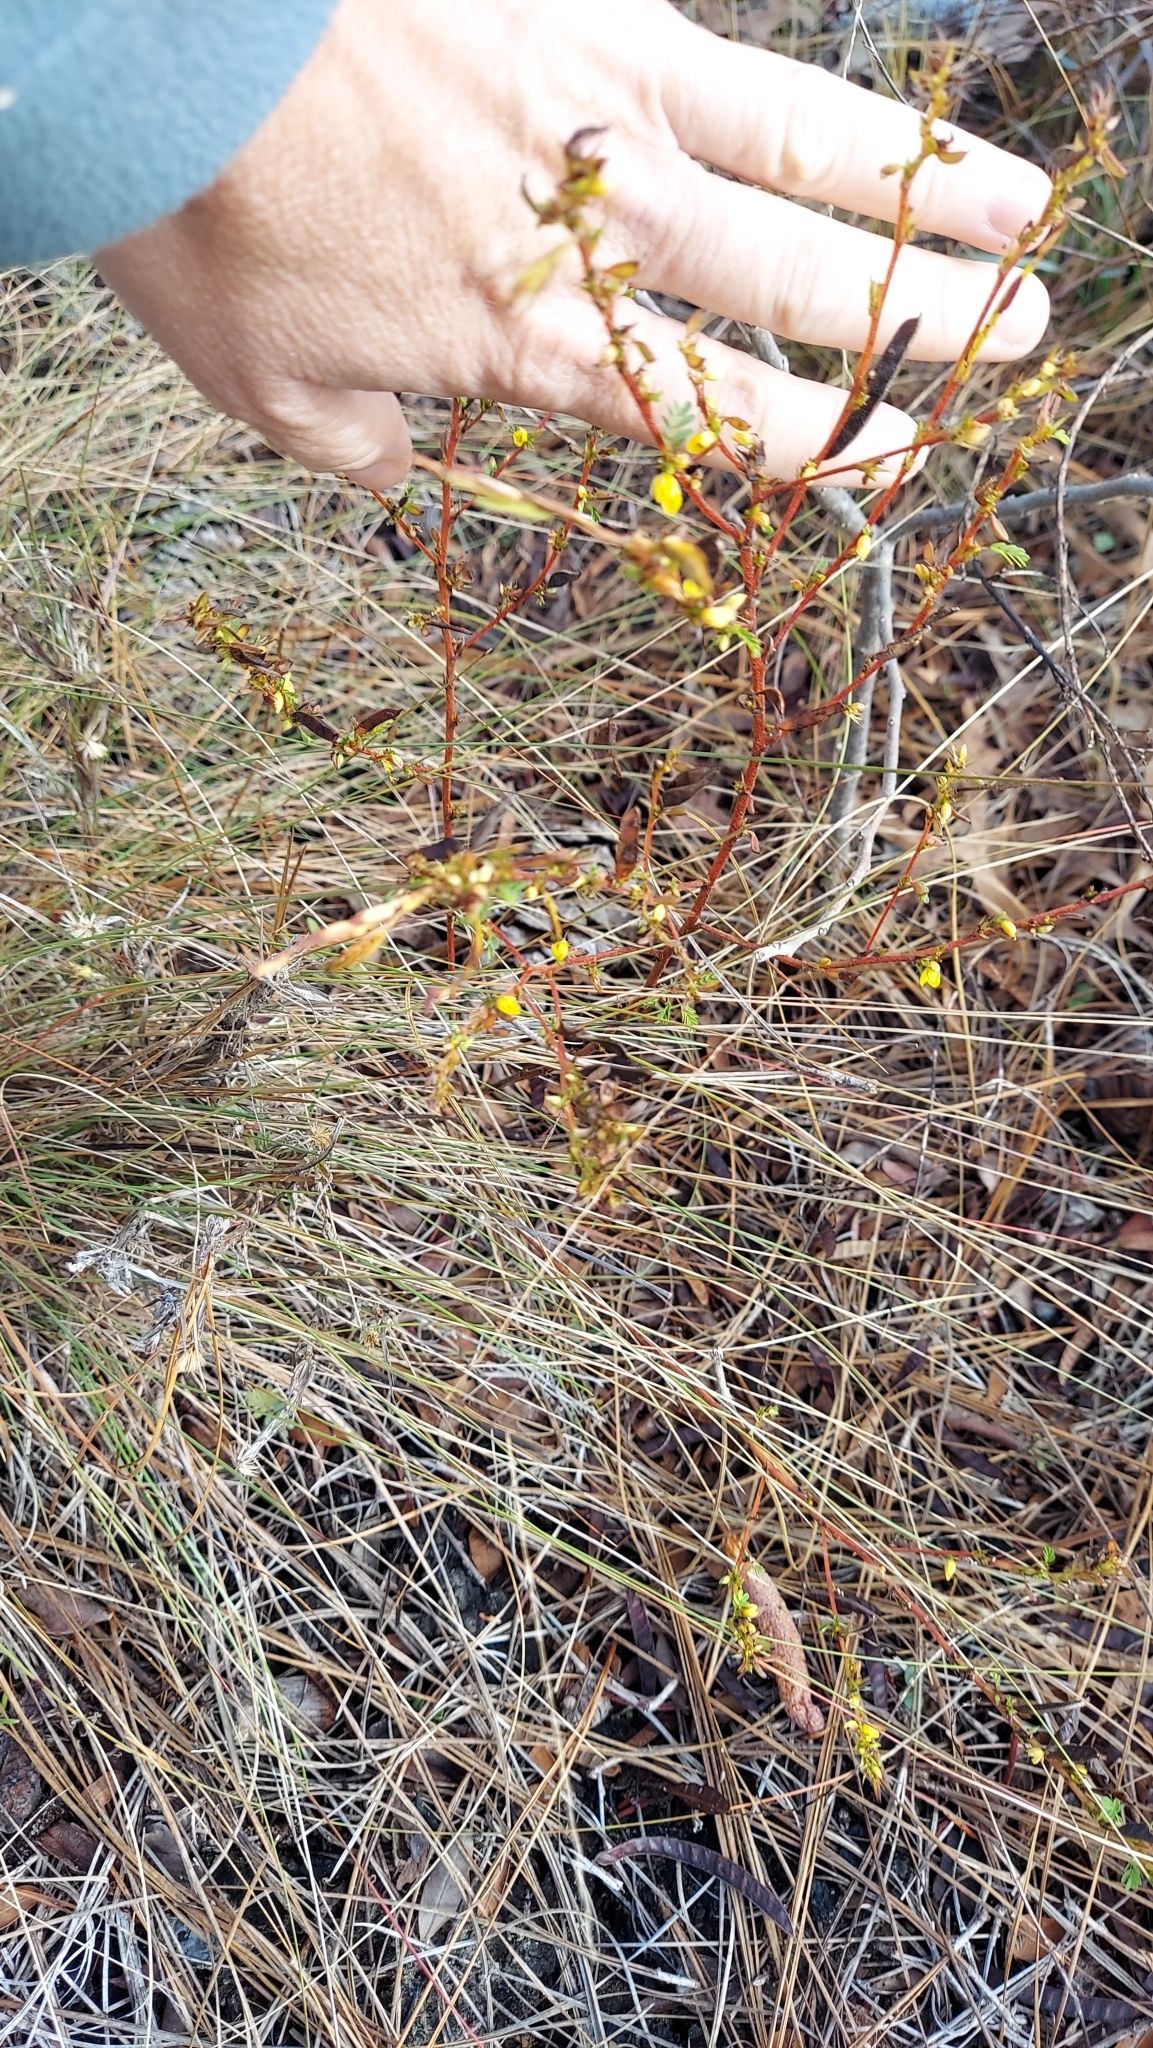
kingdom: Plantae
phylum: Tracheophyta
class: Magnoliopsida
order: Fabales
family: Fabaceae
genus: Chamaecrista
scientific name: Chamaecrista nictitans
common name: Sensitive cassia
